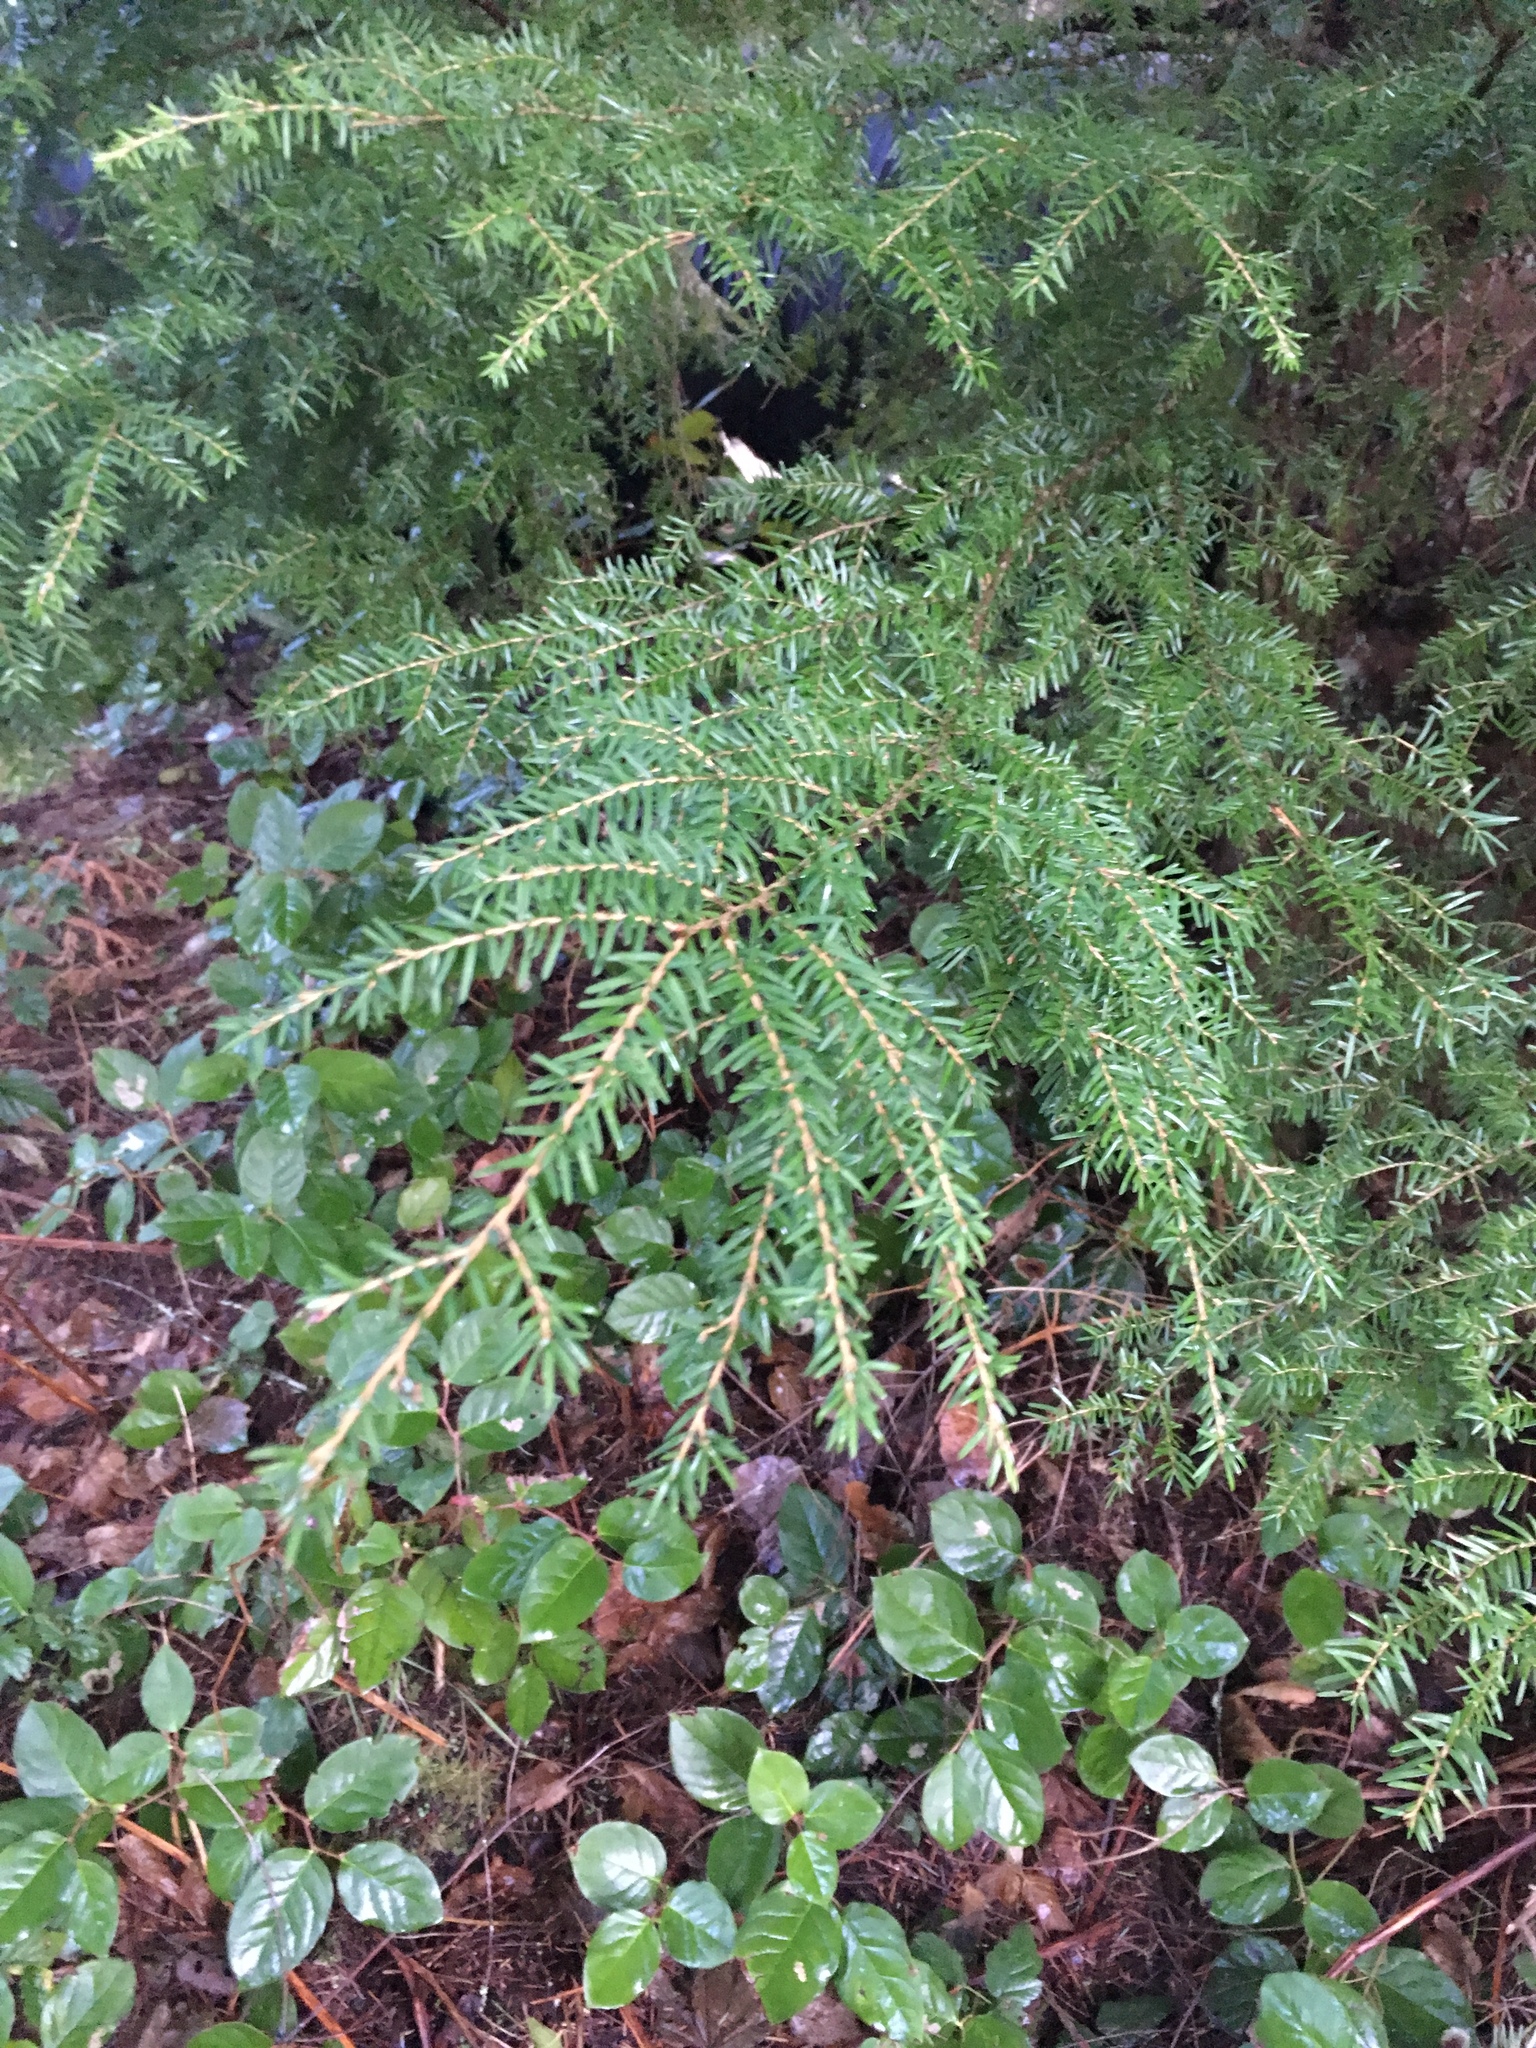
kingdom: Plantae
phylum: Tracheophyta
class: Pinopsida
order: Pinales
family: Pinaceae
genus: Tsuga
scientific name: Tsuga heterophylla
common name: Western hemlock
